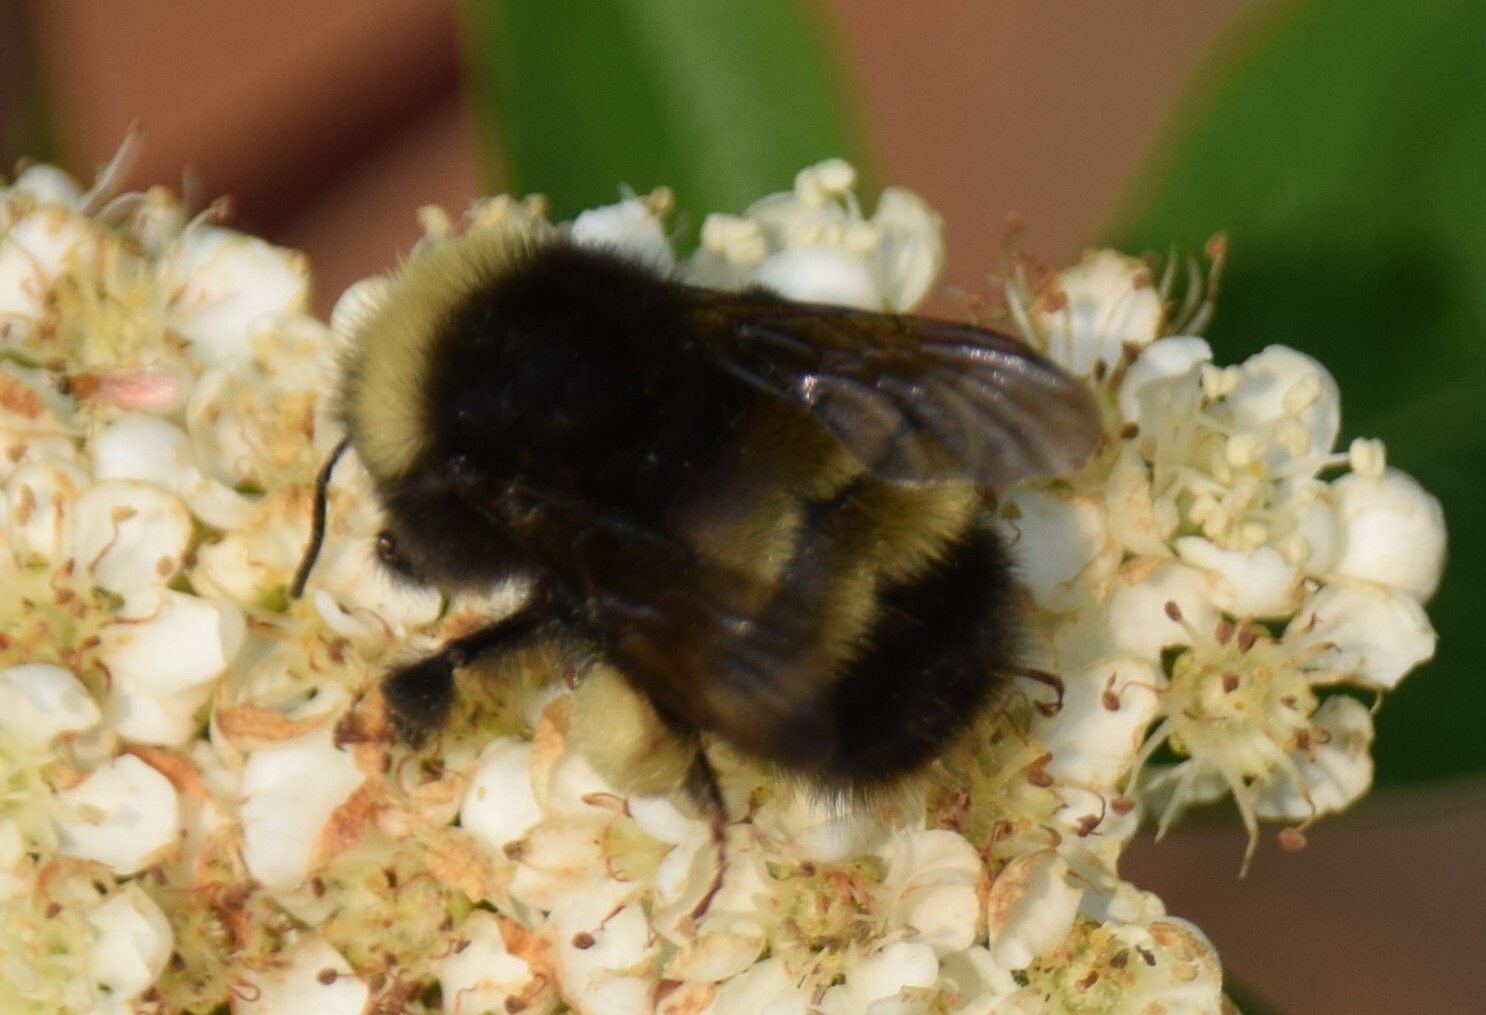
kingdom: Animalia
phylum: Arthropoda
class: Insecta
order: Hymenoptera
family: Apidae
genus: Bombus
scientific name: Bombus terricola
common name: Yellow-banded bumble bee
